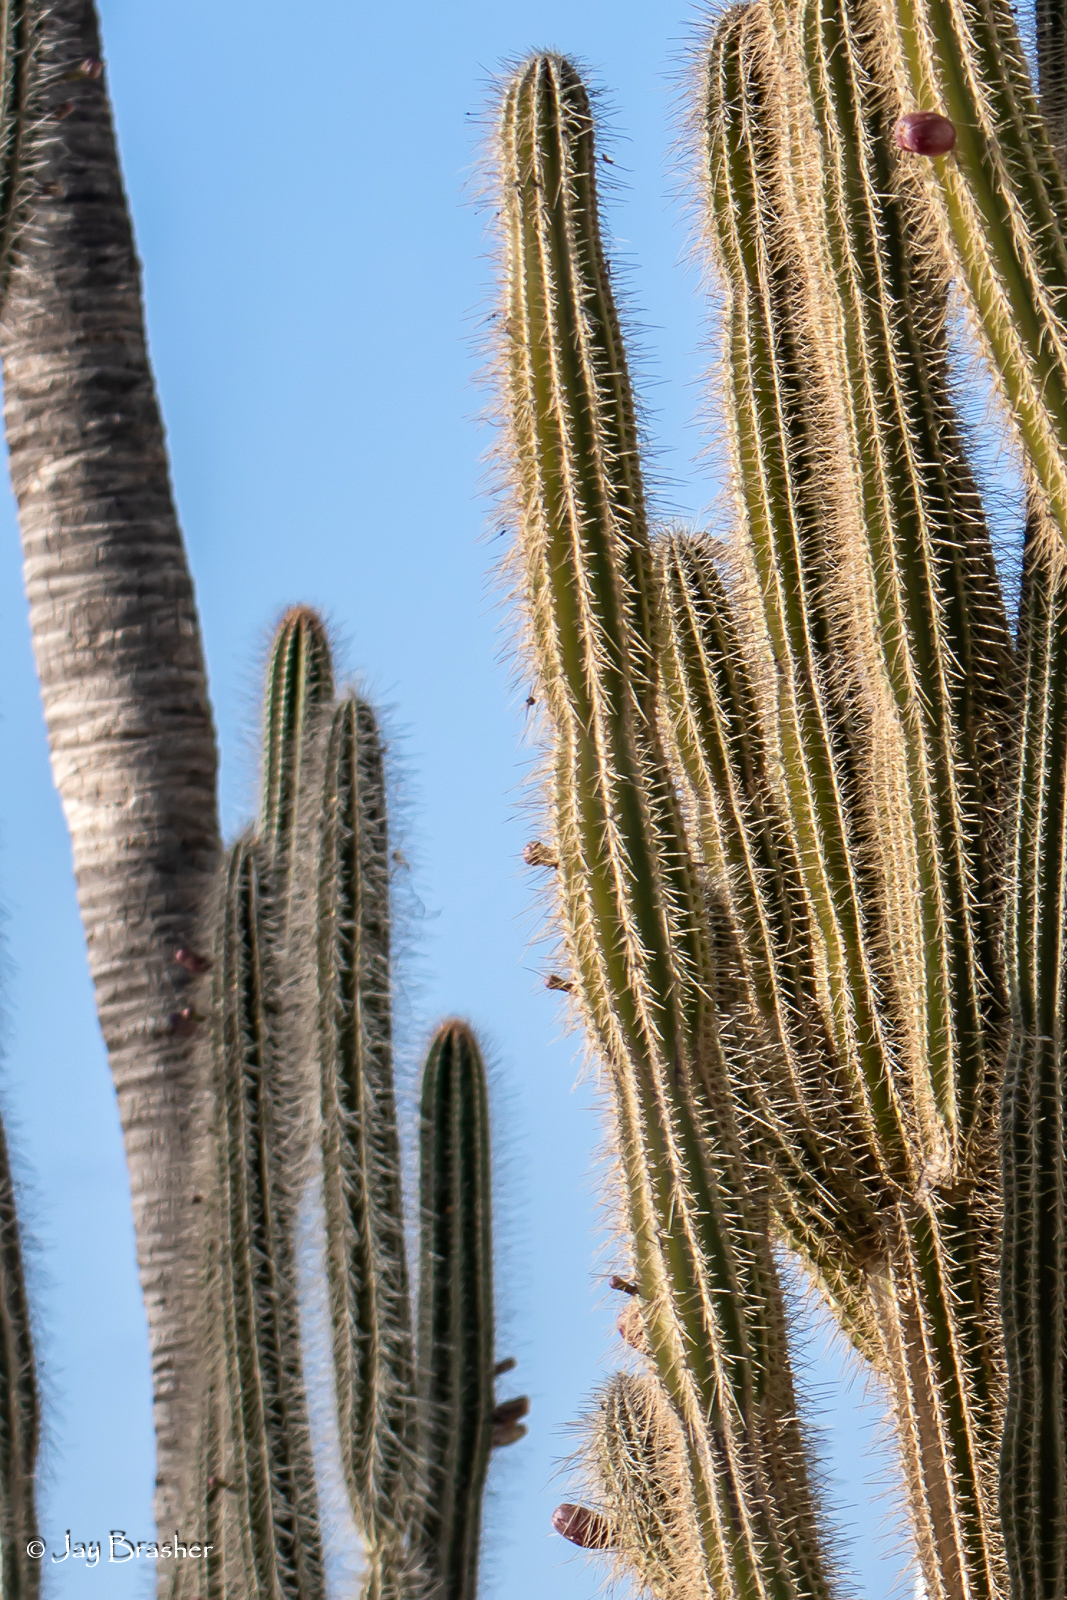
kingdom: Plantae
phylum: Tracheophyta
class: Magnoliopsida
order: Caryophyllales
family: Cactaceae
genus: Cereus
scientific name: Cereus repandus
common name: Sweetpotato cactus
